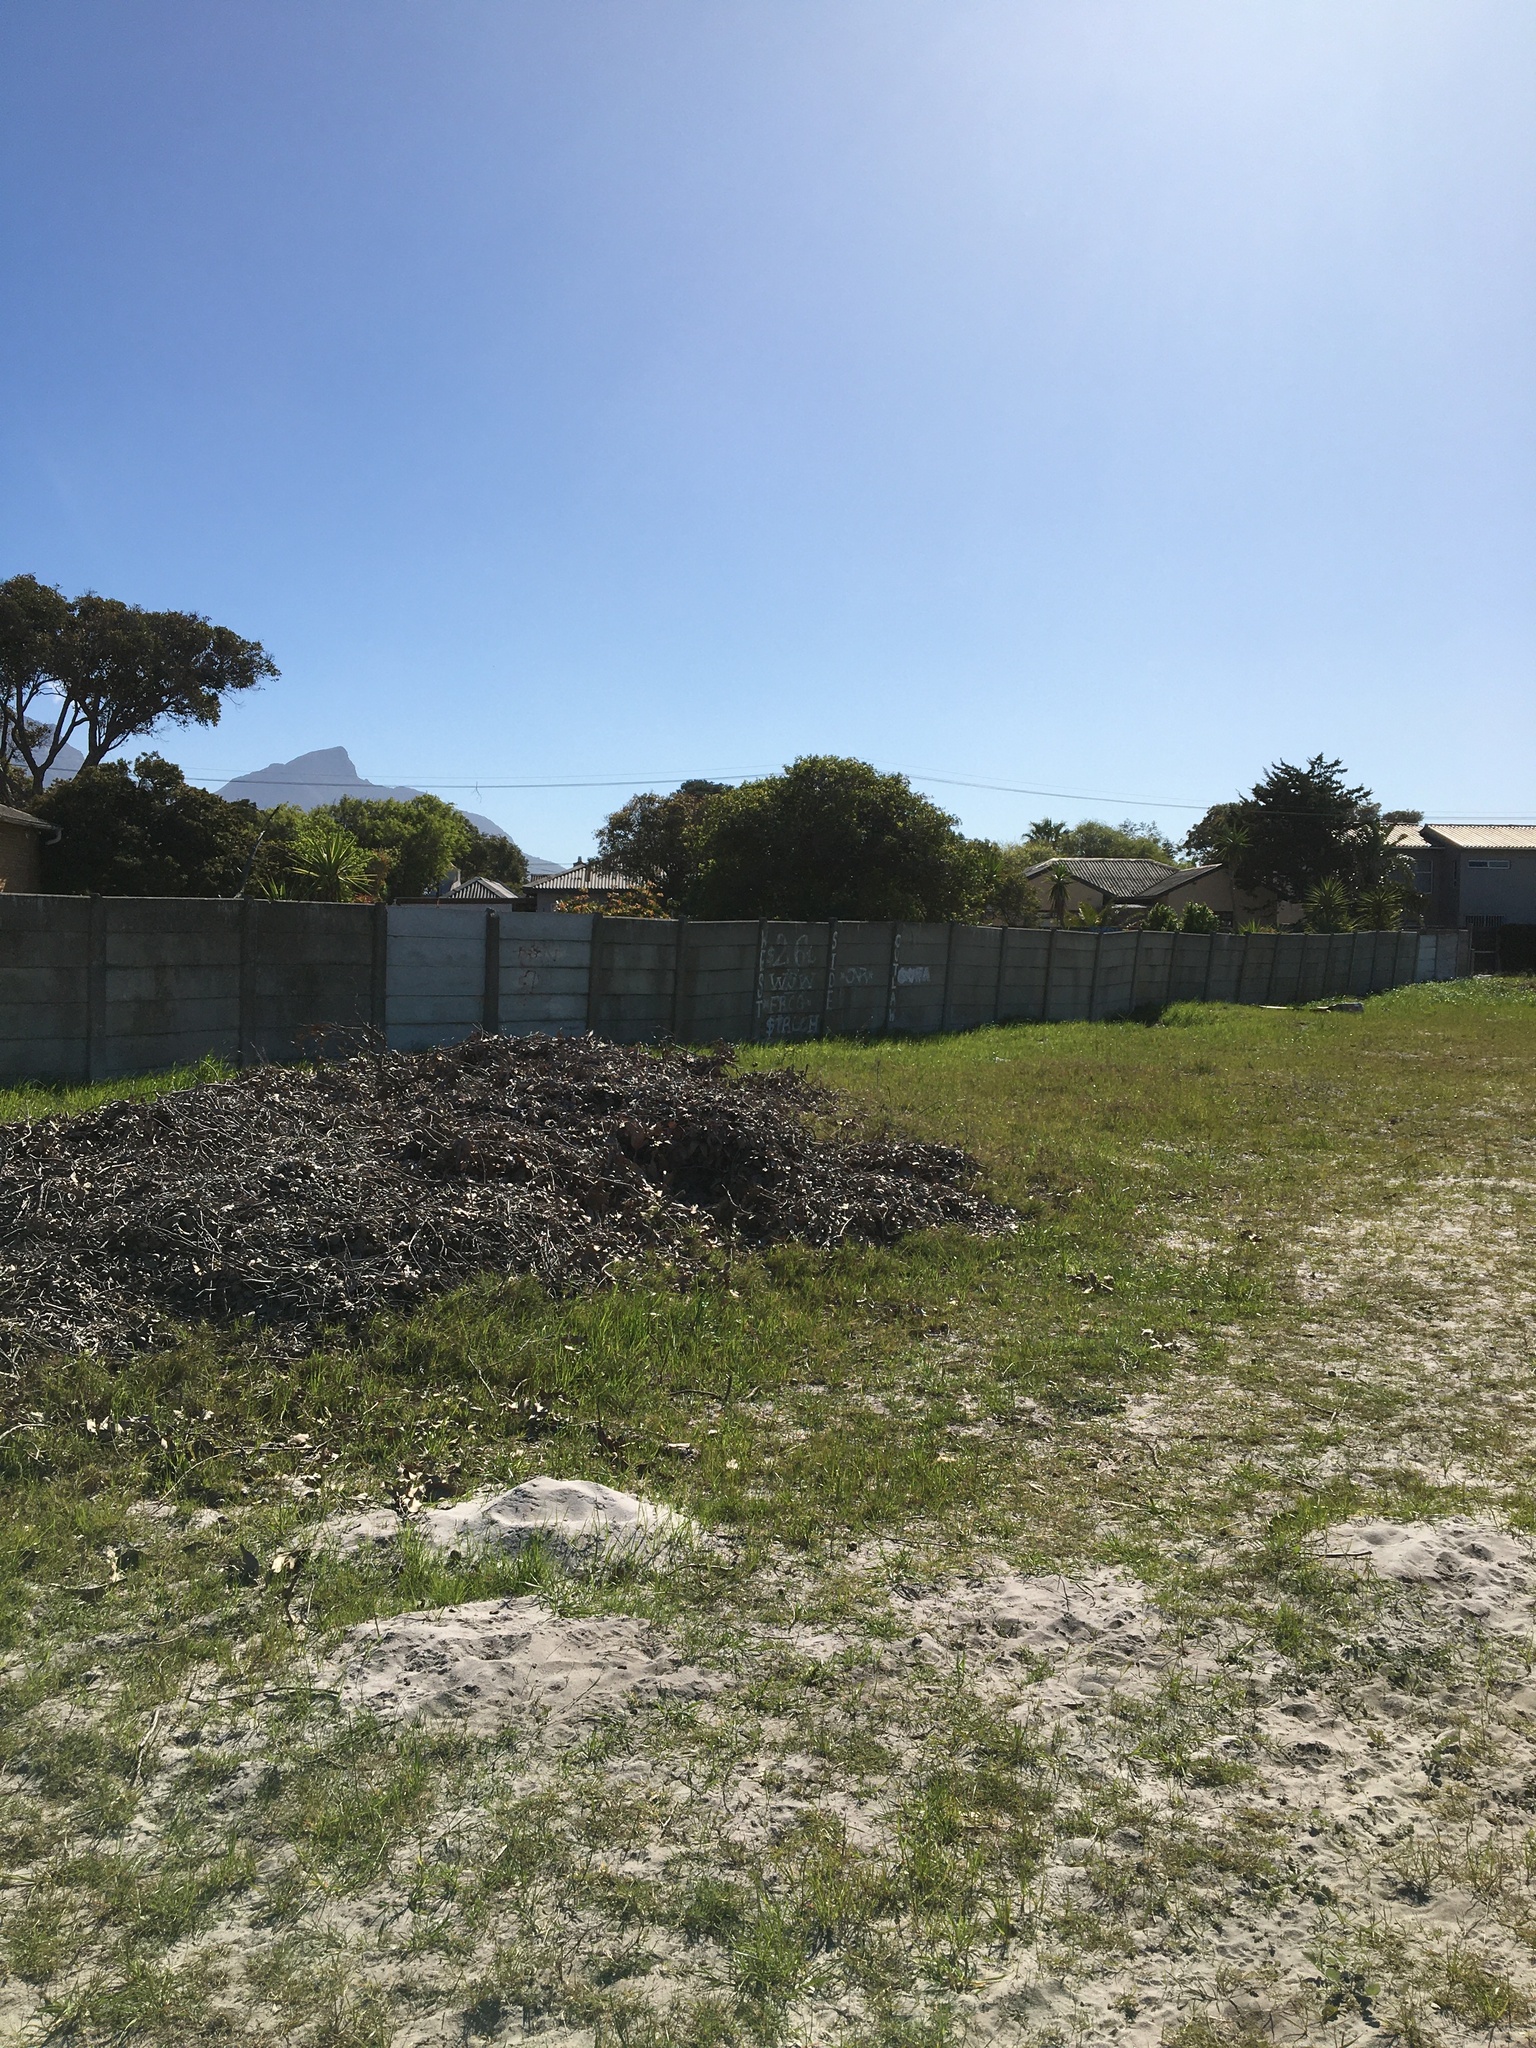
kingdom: Plantae
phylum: Tracheophyta
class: Liliopsida
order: Asparagales
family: Asparagaceae
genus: Lachenalia
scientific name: Lachenalia reflexa
